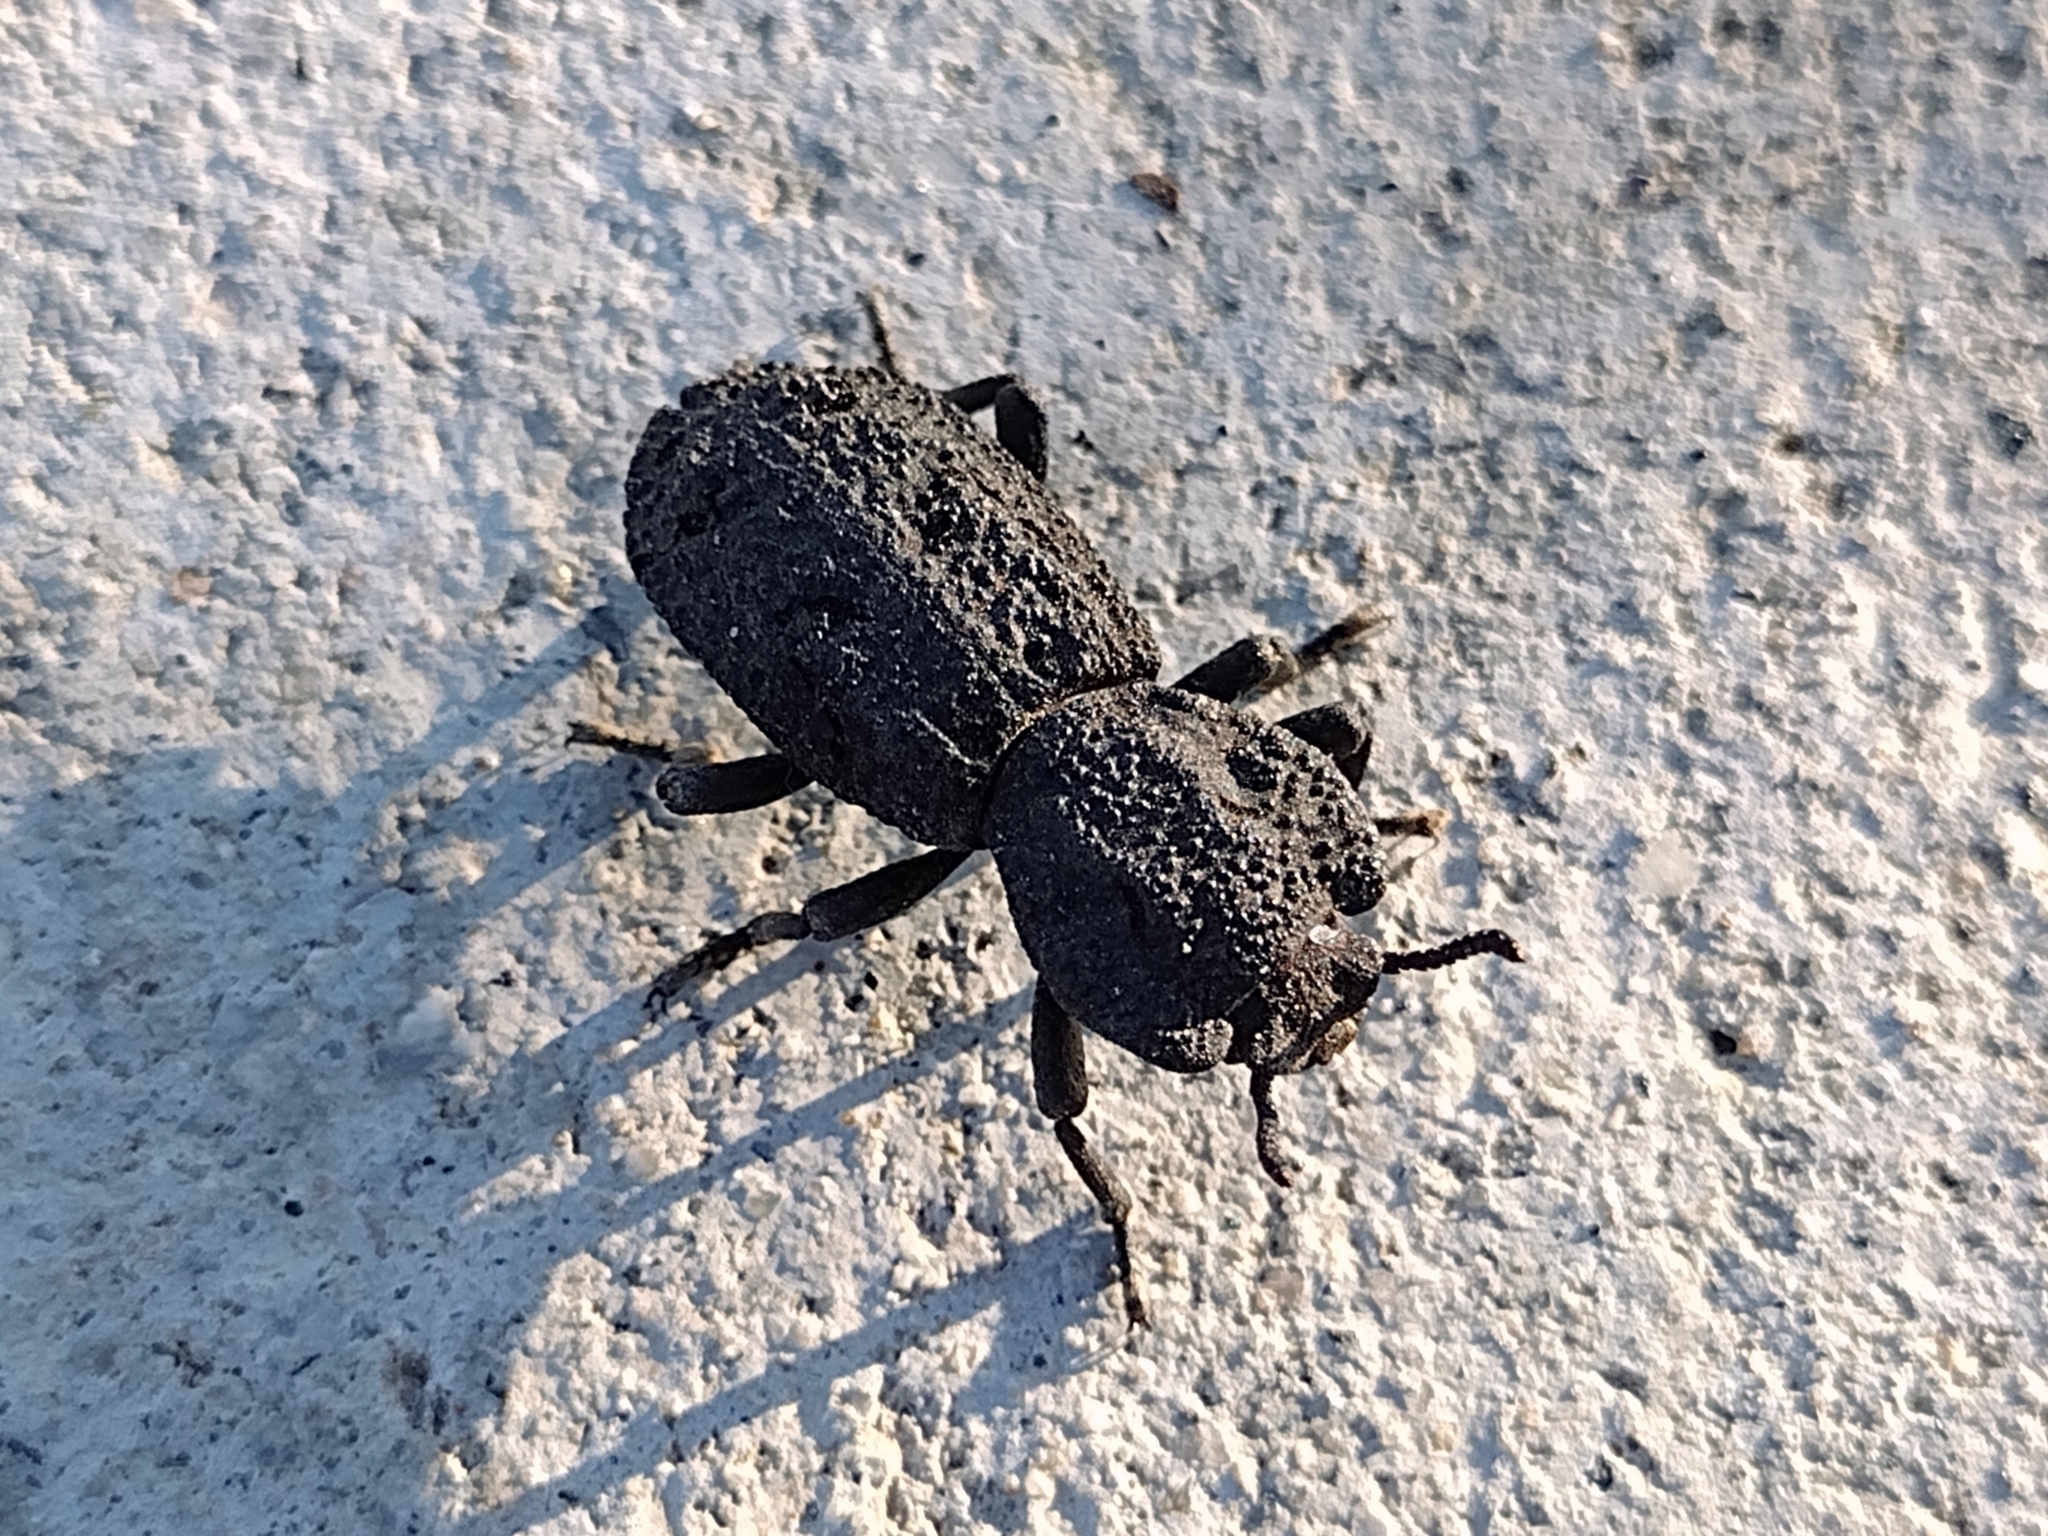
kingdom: Animalia
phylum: Arthropoda
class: Insecta
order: Coleoptera
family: Zopheridae
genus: Phloeodes
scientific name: Phloeodes diabolicus
